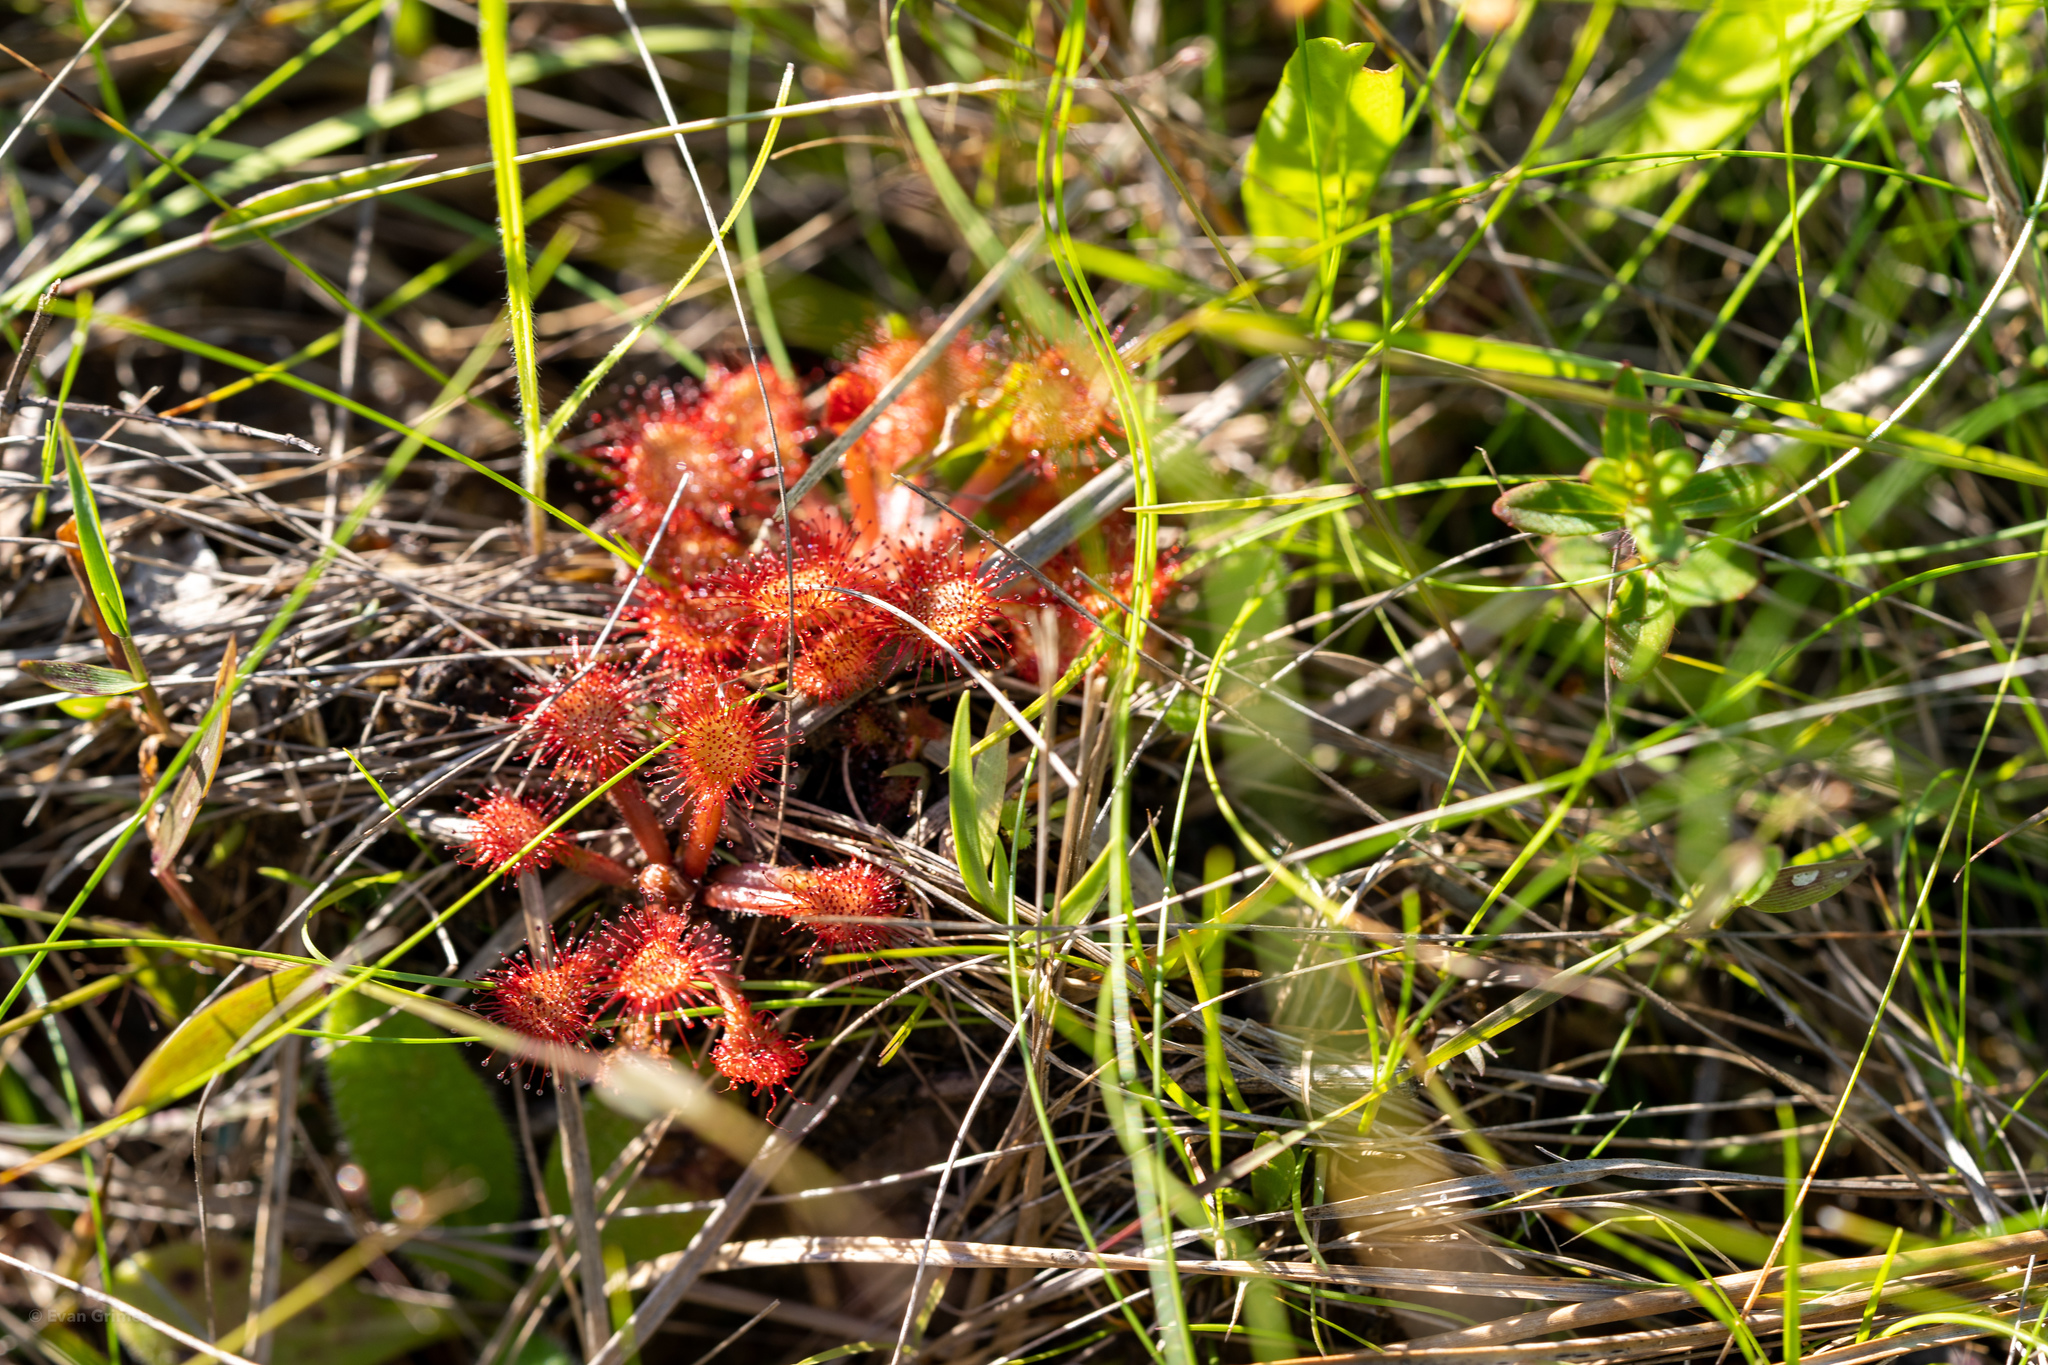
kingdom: Plantae
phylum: Tracheophyta
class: Magnoliopsida
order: Caryophyllales
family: Droseraceae
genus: Drosera
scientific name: Drosera capillaris
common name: Pink sundew
